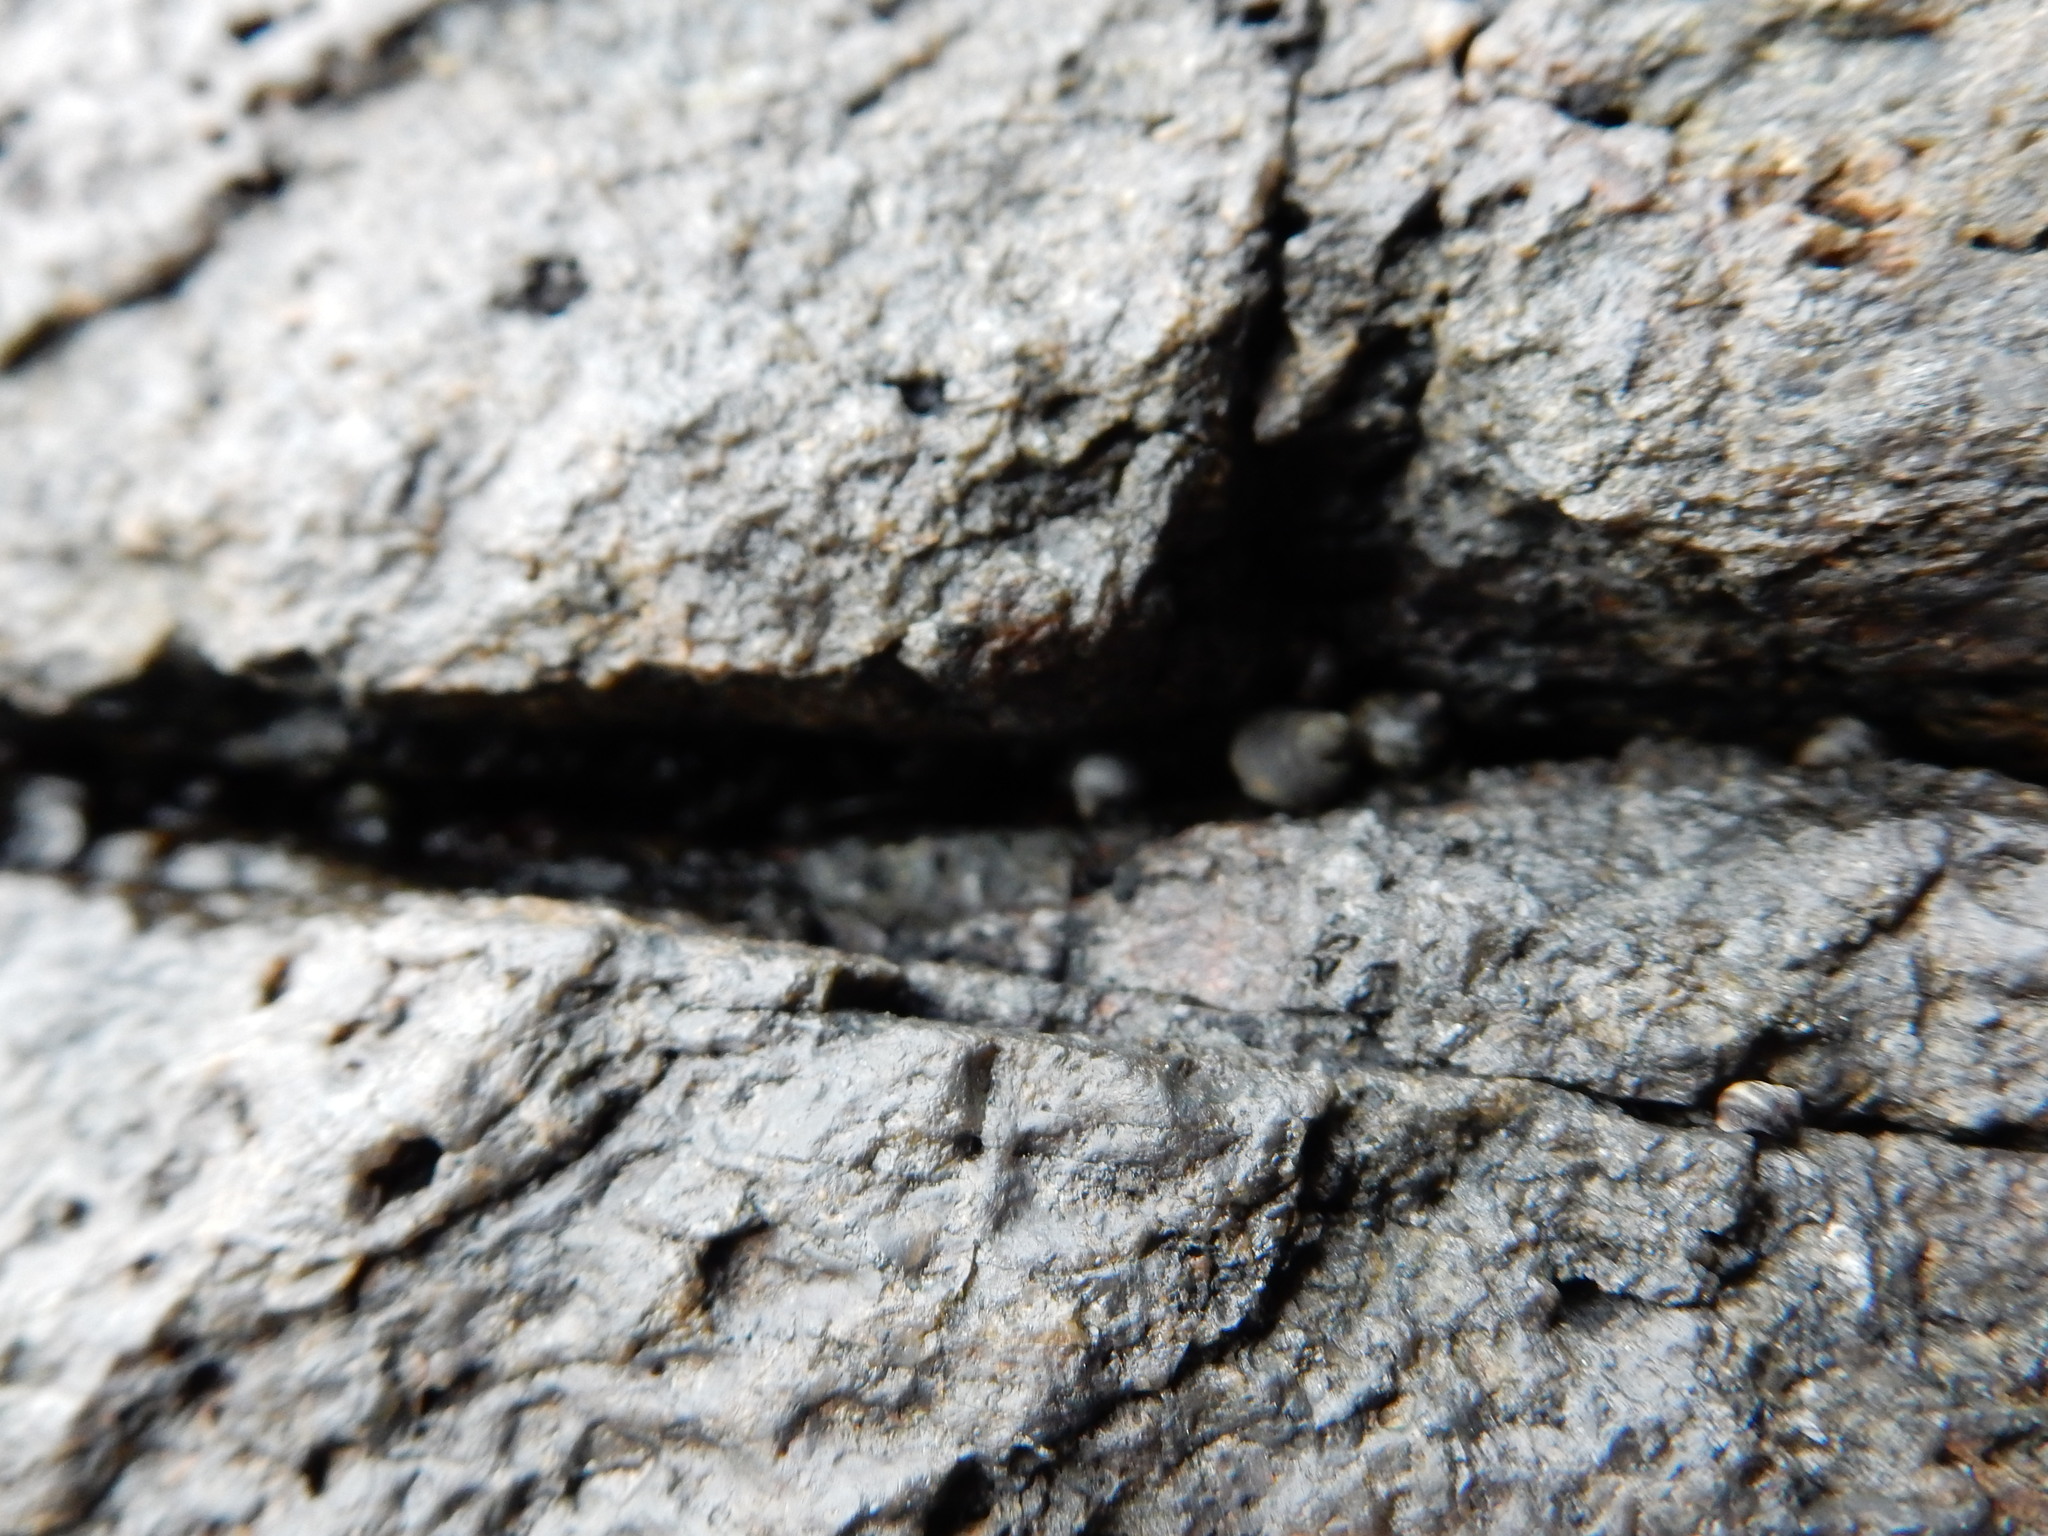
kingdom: Animalia
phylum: Mollusca
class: Gastropoda
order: Littorinimorpha
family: Littorinidae
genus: Littorina
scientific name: Littorina littorea
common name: Common periwinkle
